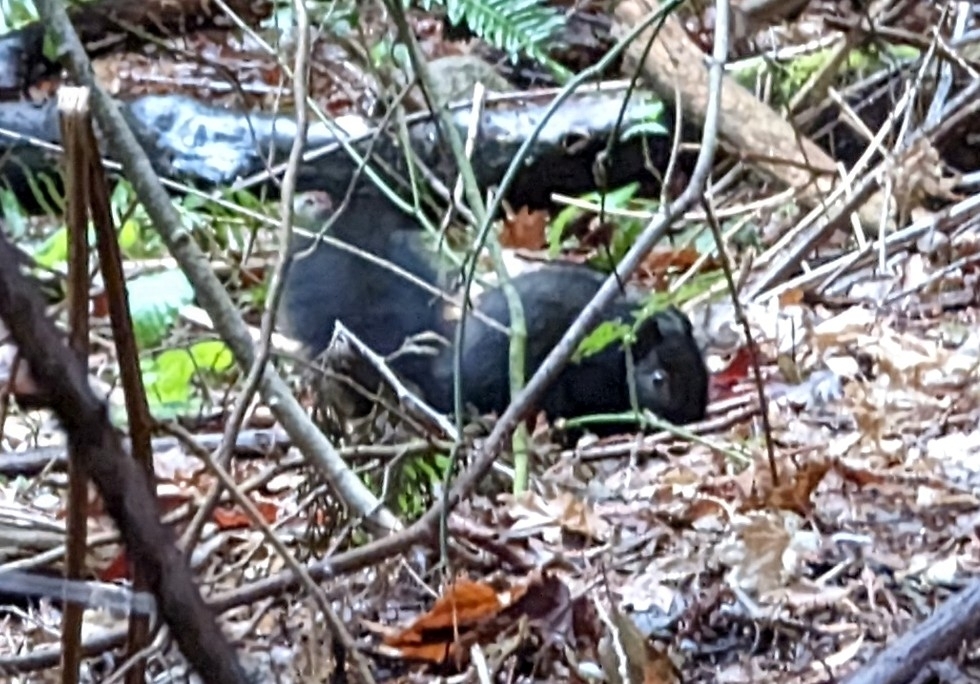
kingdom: Animalia
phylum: Chordata
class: Mammalia
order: Rodentia
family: Sciuridae
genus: Sciurus
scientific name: Sciurus carolinensis
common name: Eastern gray squirrel
